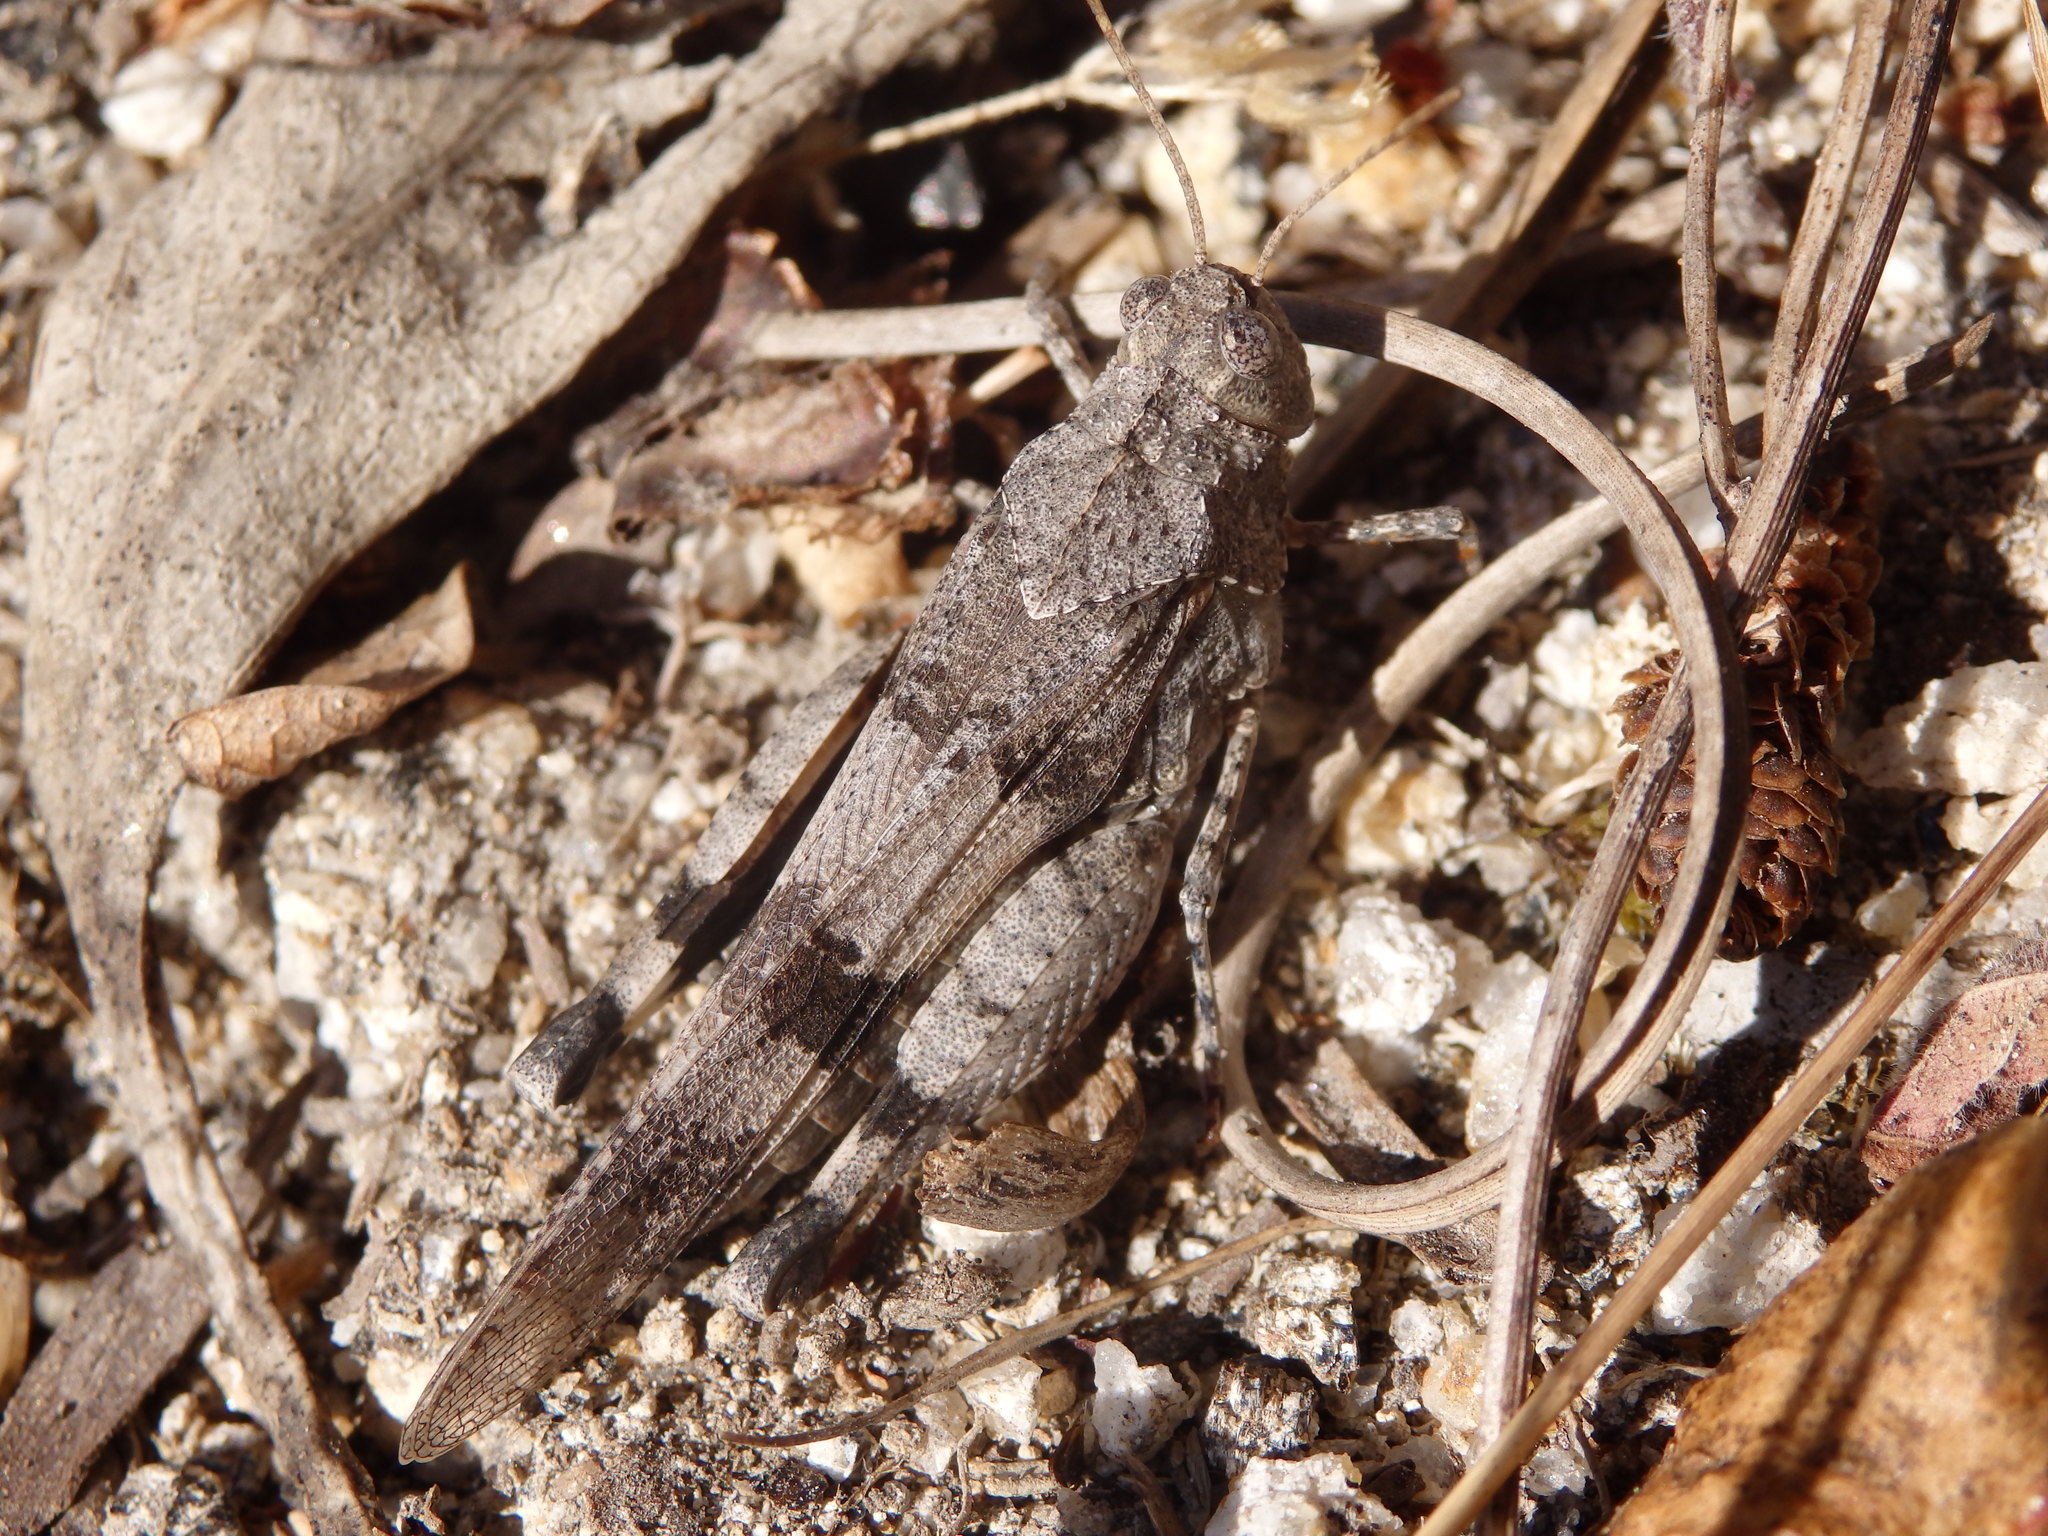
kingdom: Animalia
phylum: Arthropoda
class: Insecta
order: Orthoptera
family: Acrididae
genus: Oedipoda
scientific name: Oedipoda caerulescens
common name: Blue-winged grasshopper
